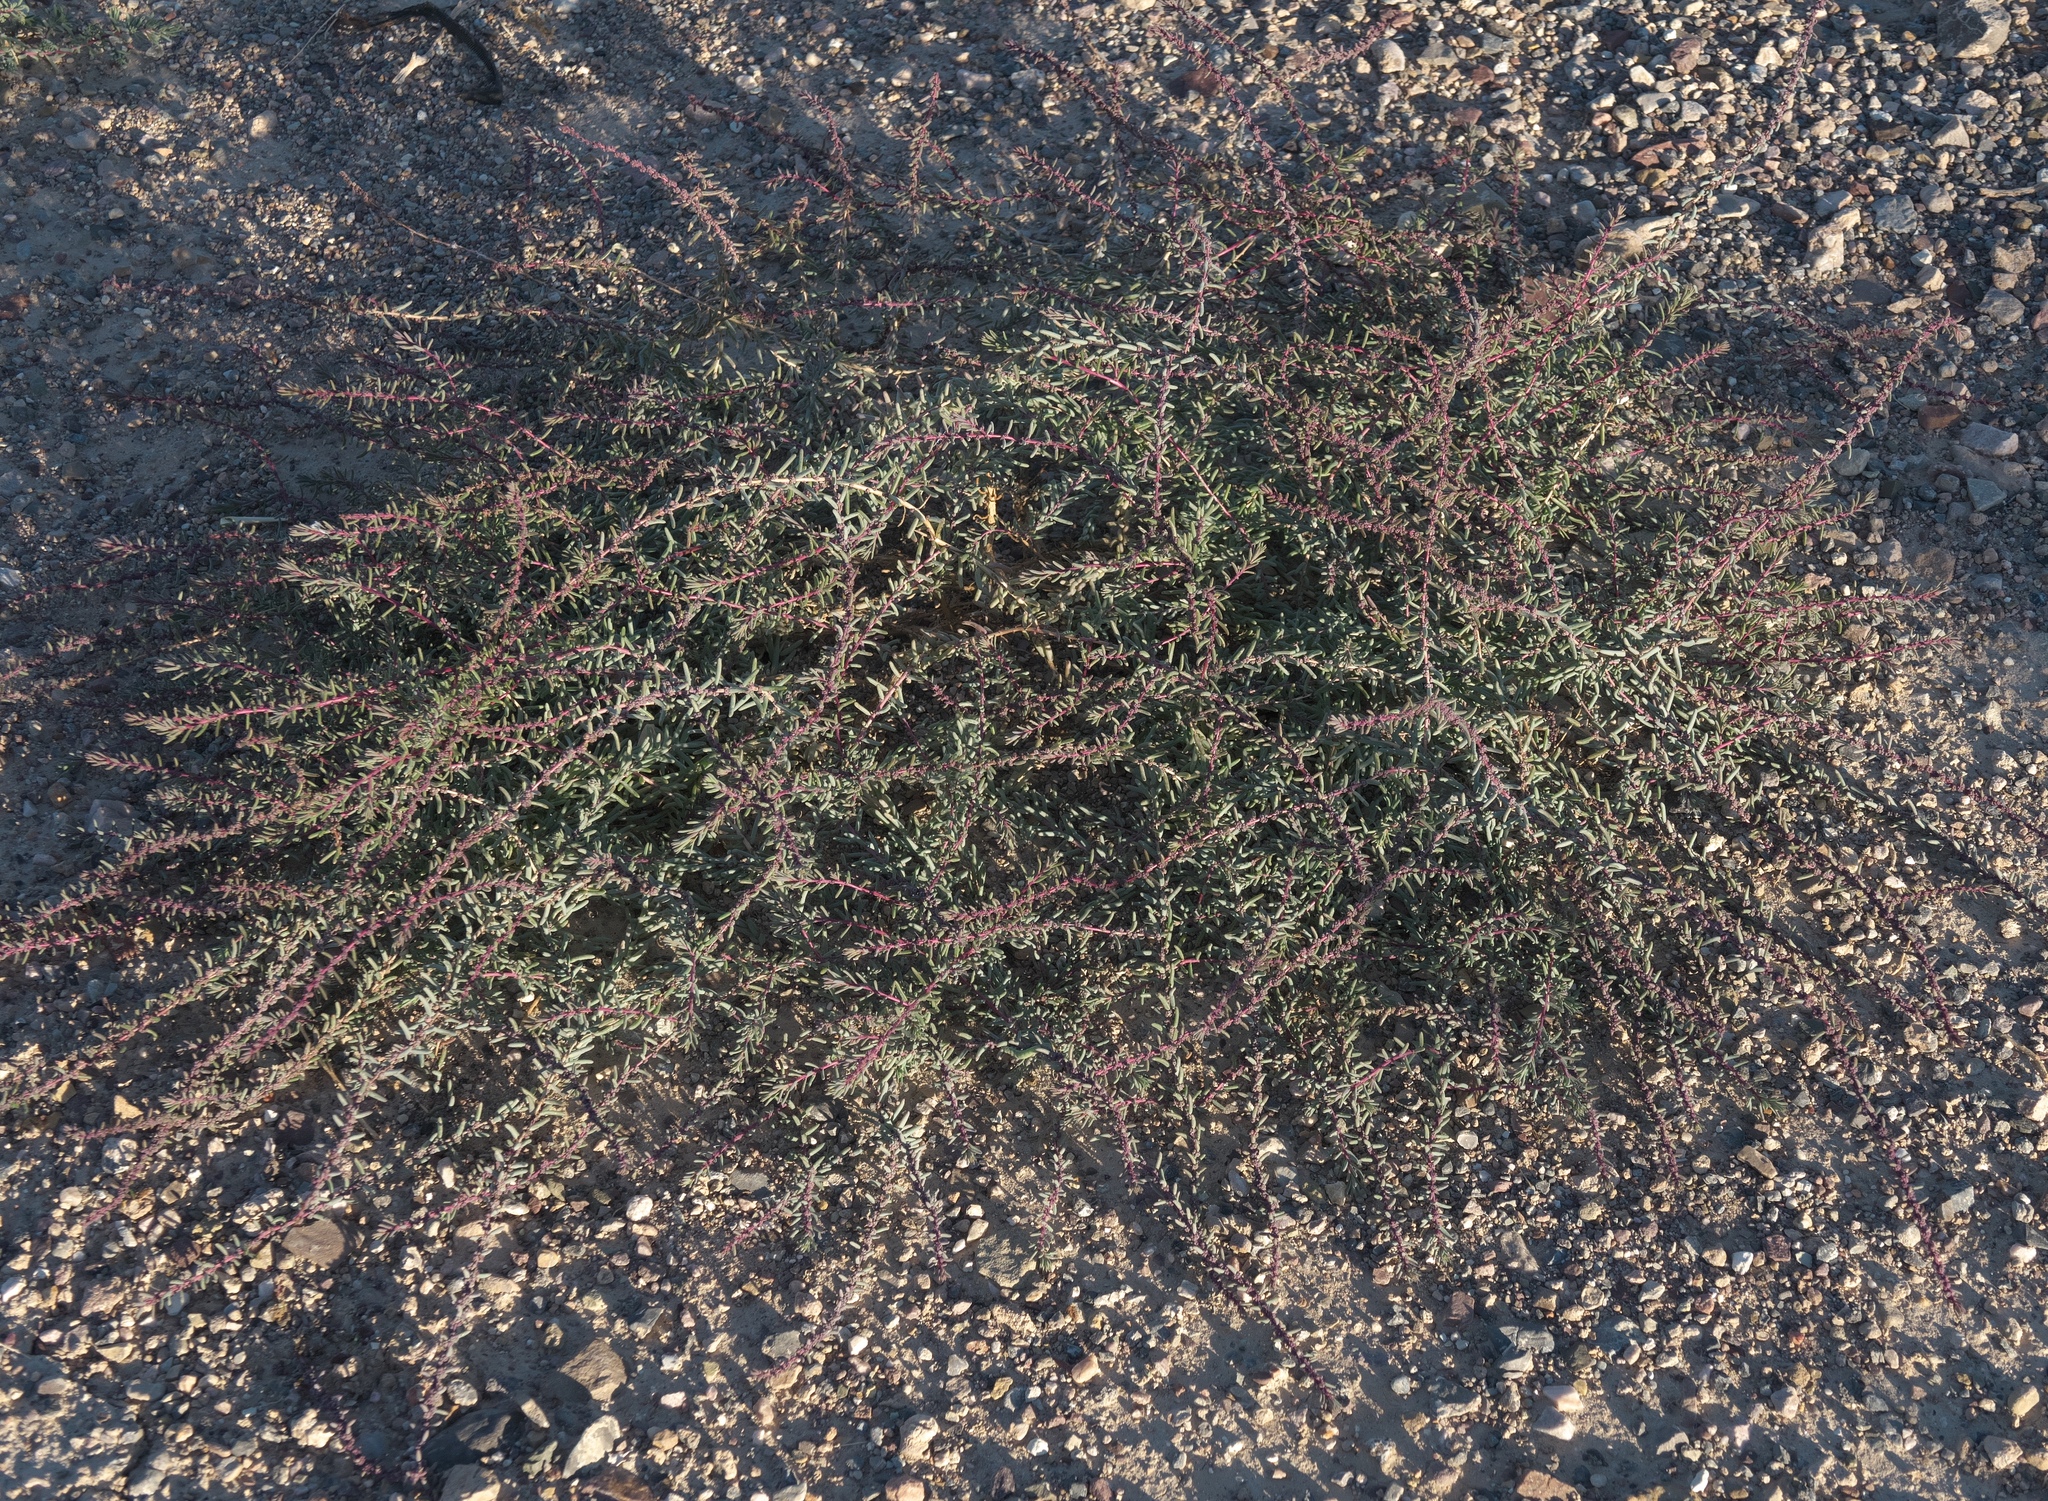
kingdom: Plantae
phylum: Tracheophyta
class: Magnoliopsida
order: Caryophyllales
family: Amaranthaceae
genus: Suaeda
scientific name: Suaeda nigra
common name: Bush seepweed
